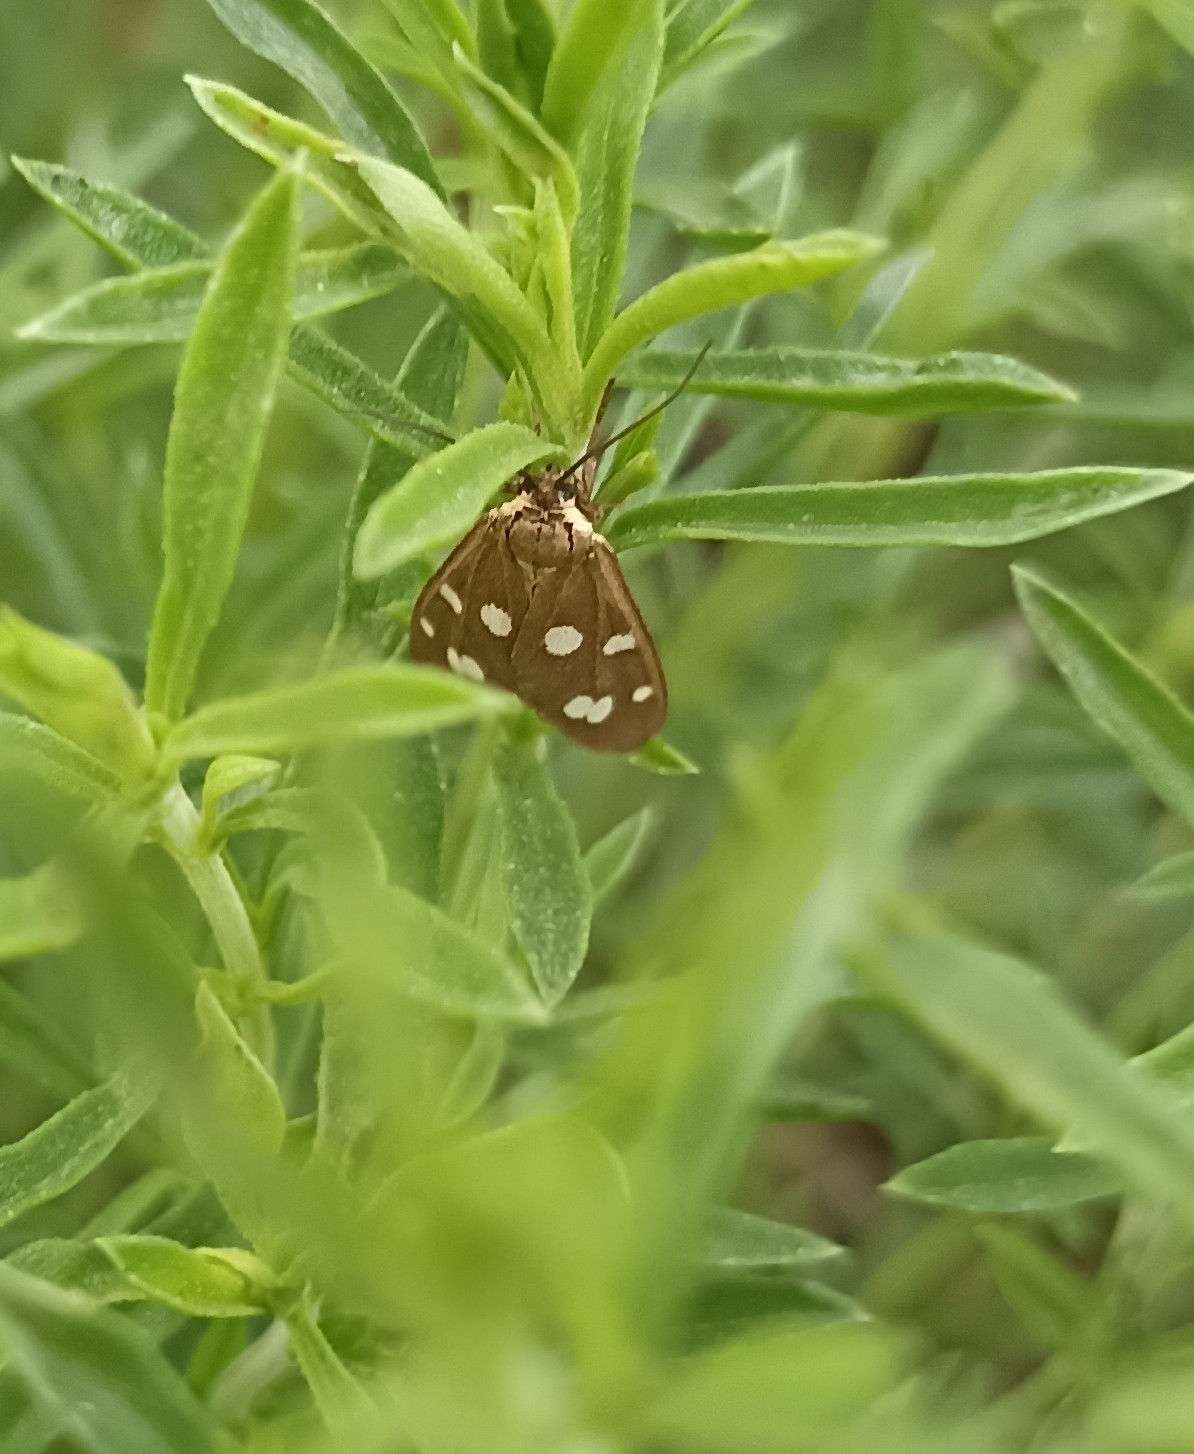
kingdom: Animalia
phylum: Arthropoda
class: Insecta
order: Lepidoptera
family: Erebidae
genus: Dysauxes
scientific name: Dysauxes punctata
